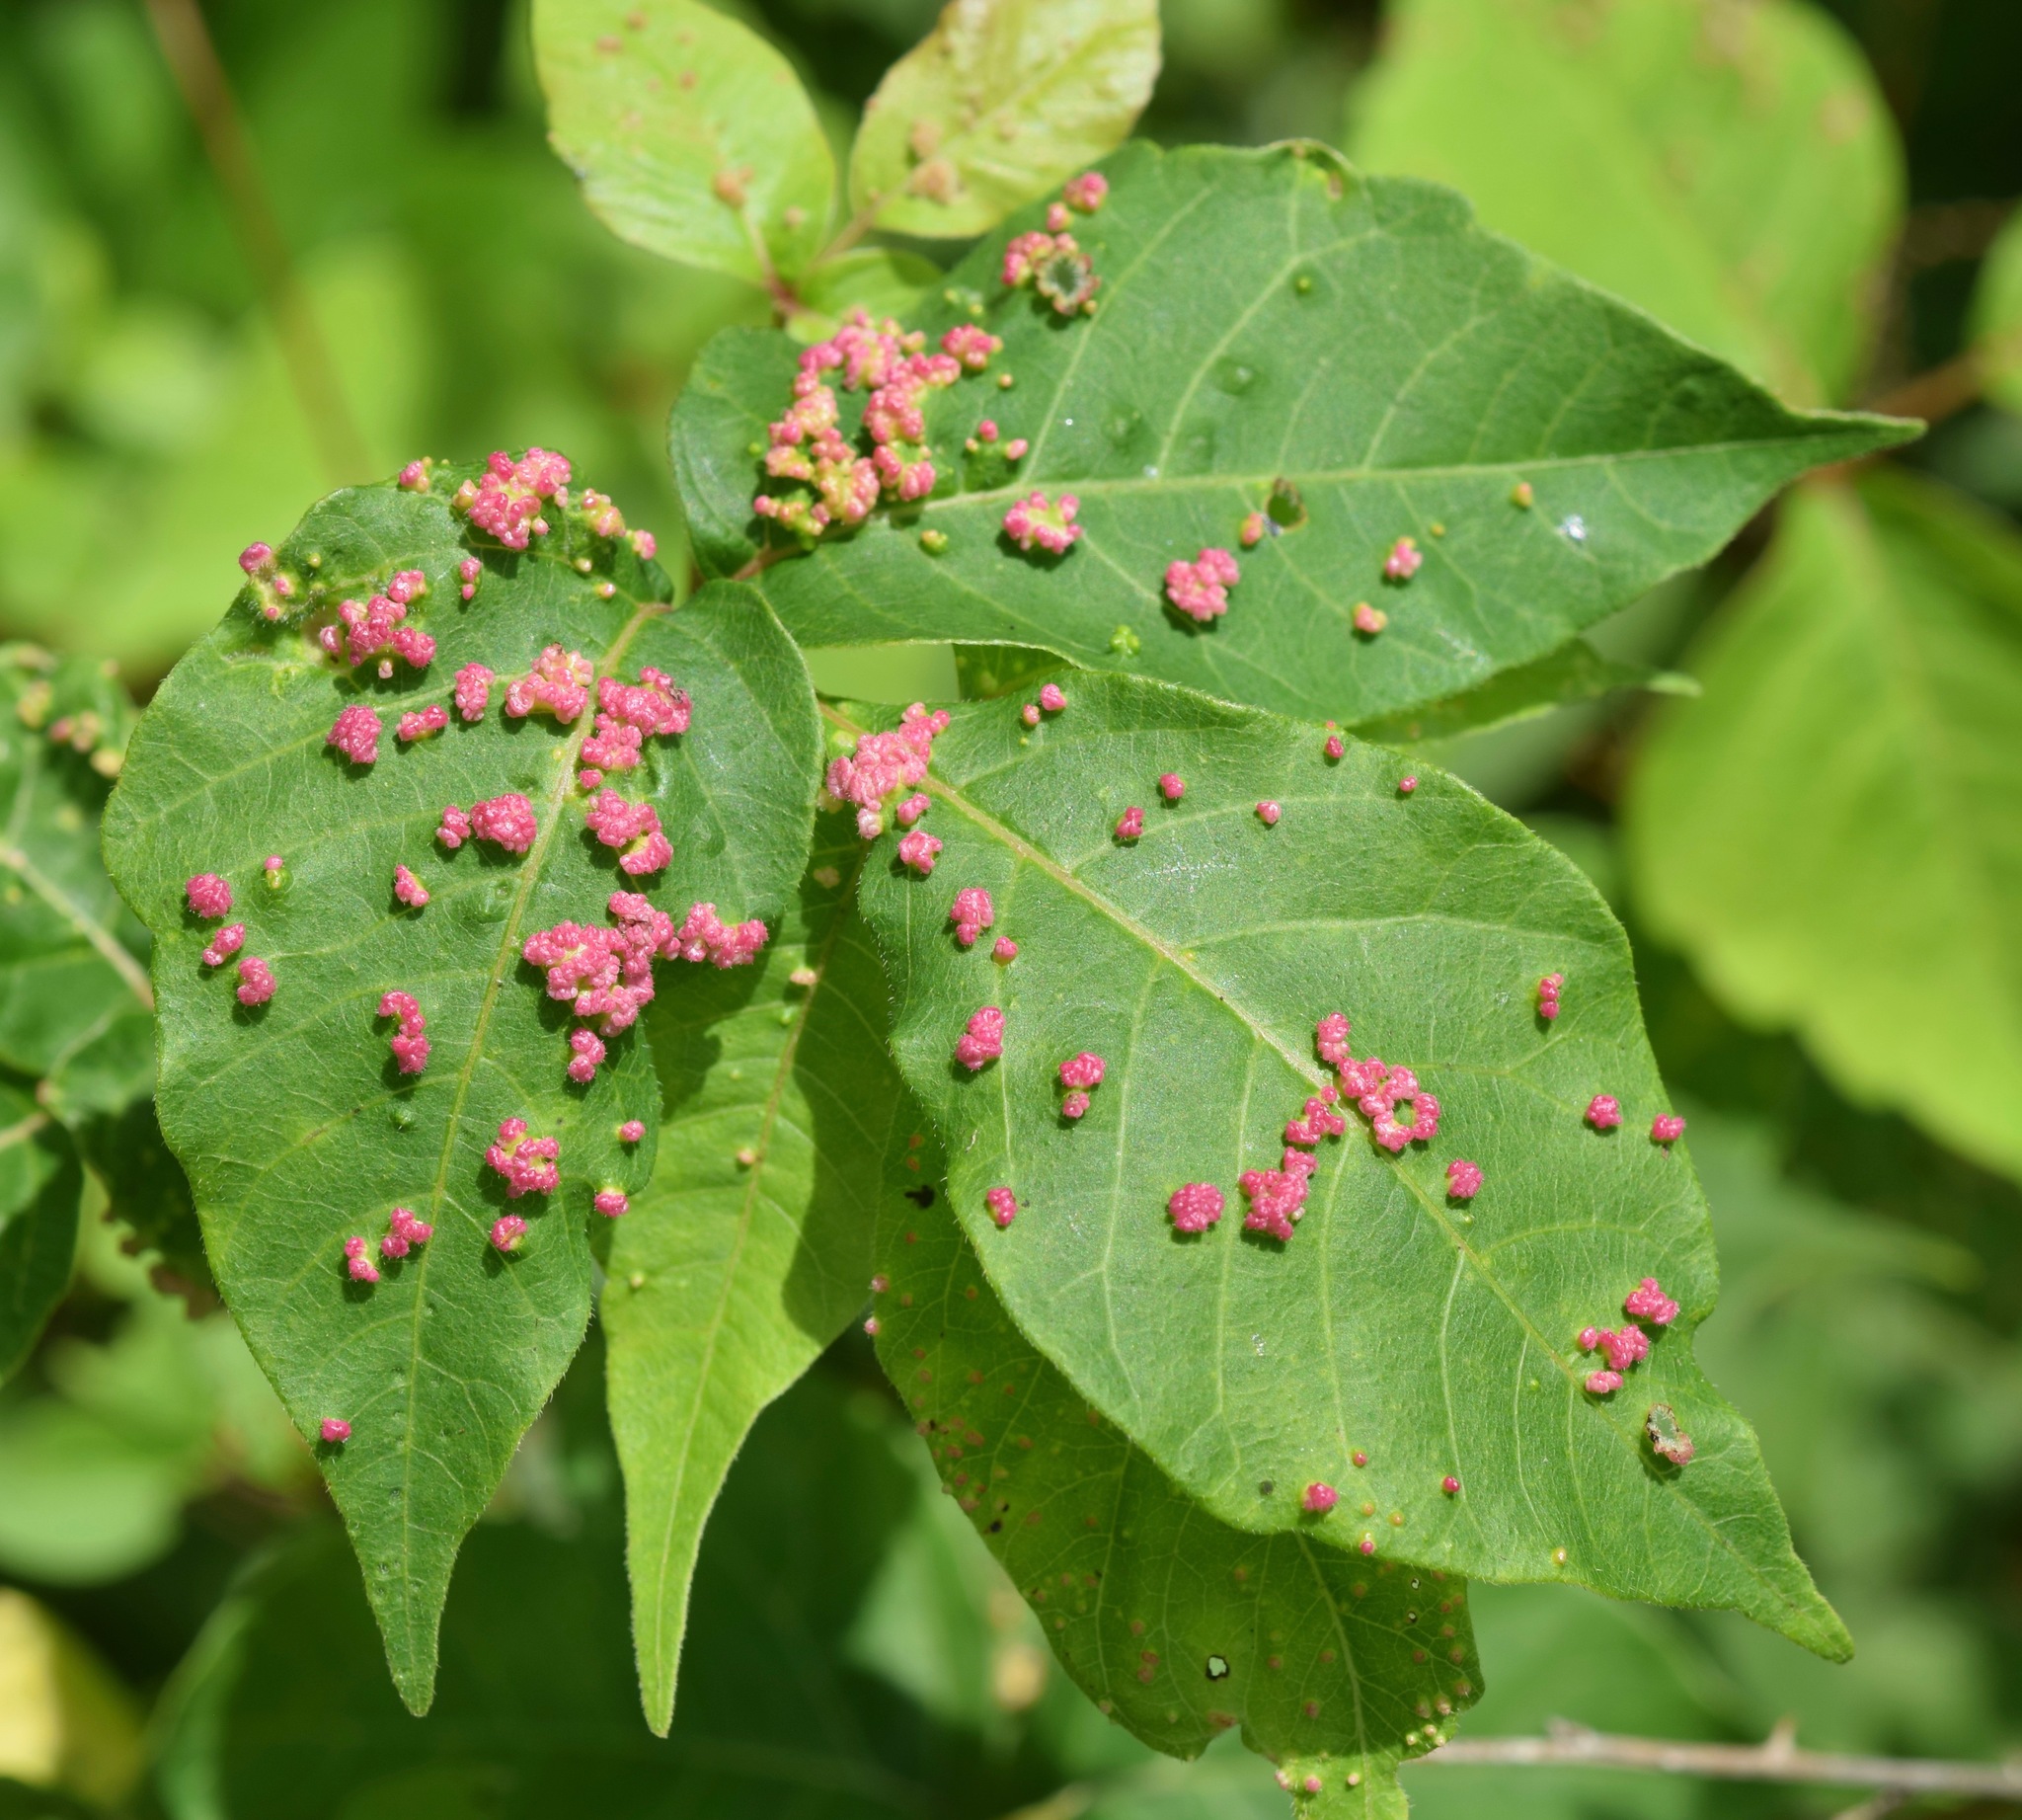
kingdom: Animalia
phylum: Arthropoda
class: Arachnida
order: Trombidiformes
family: Eriophyidae
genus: Aculops
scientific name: Aculops
